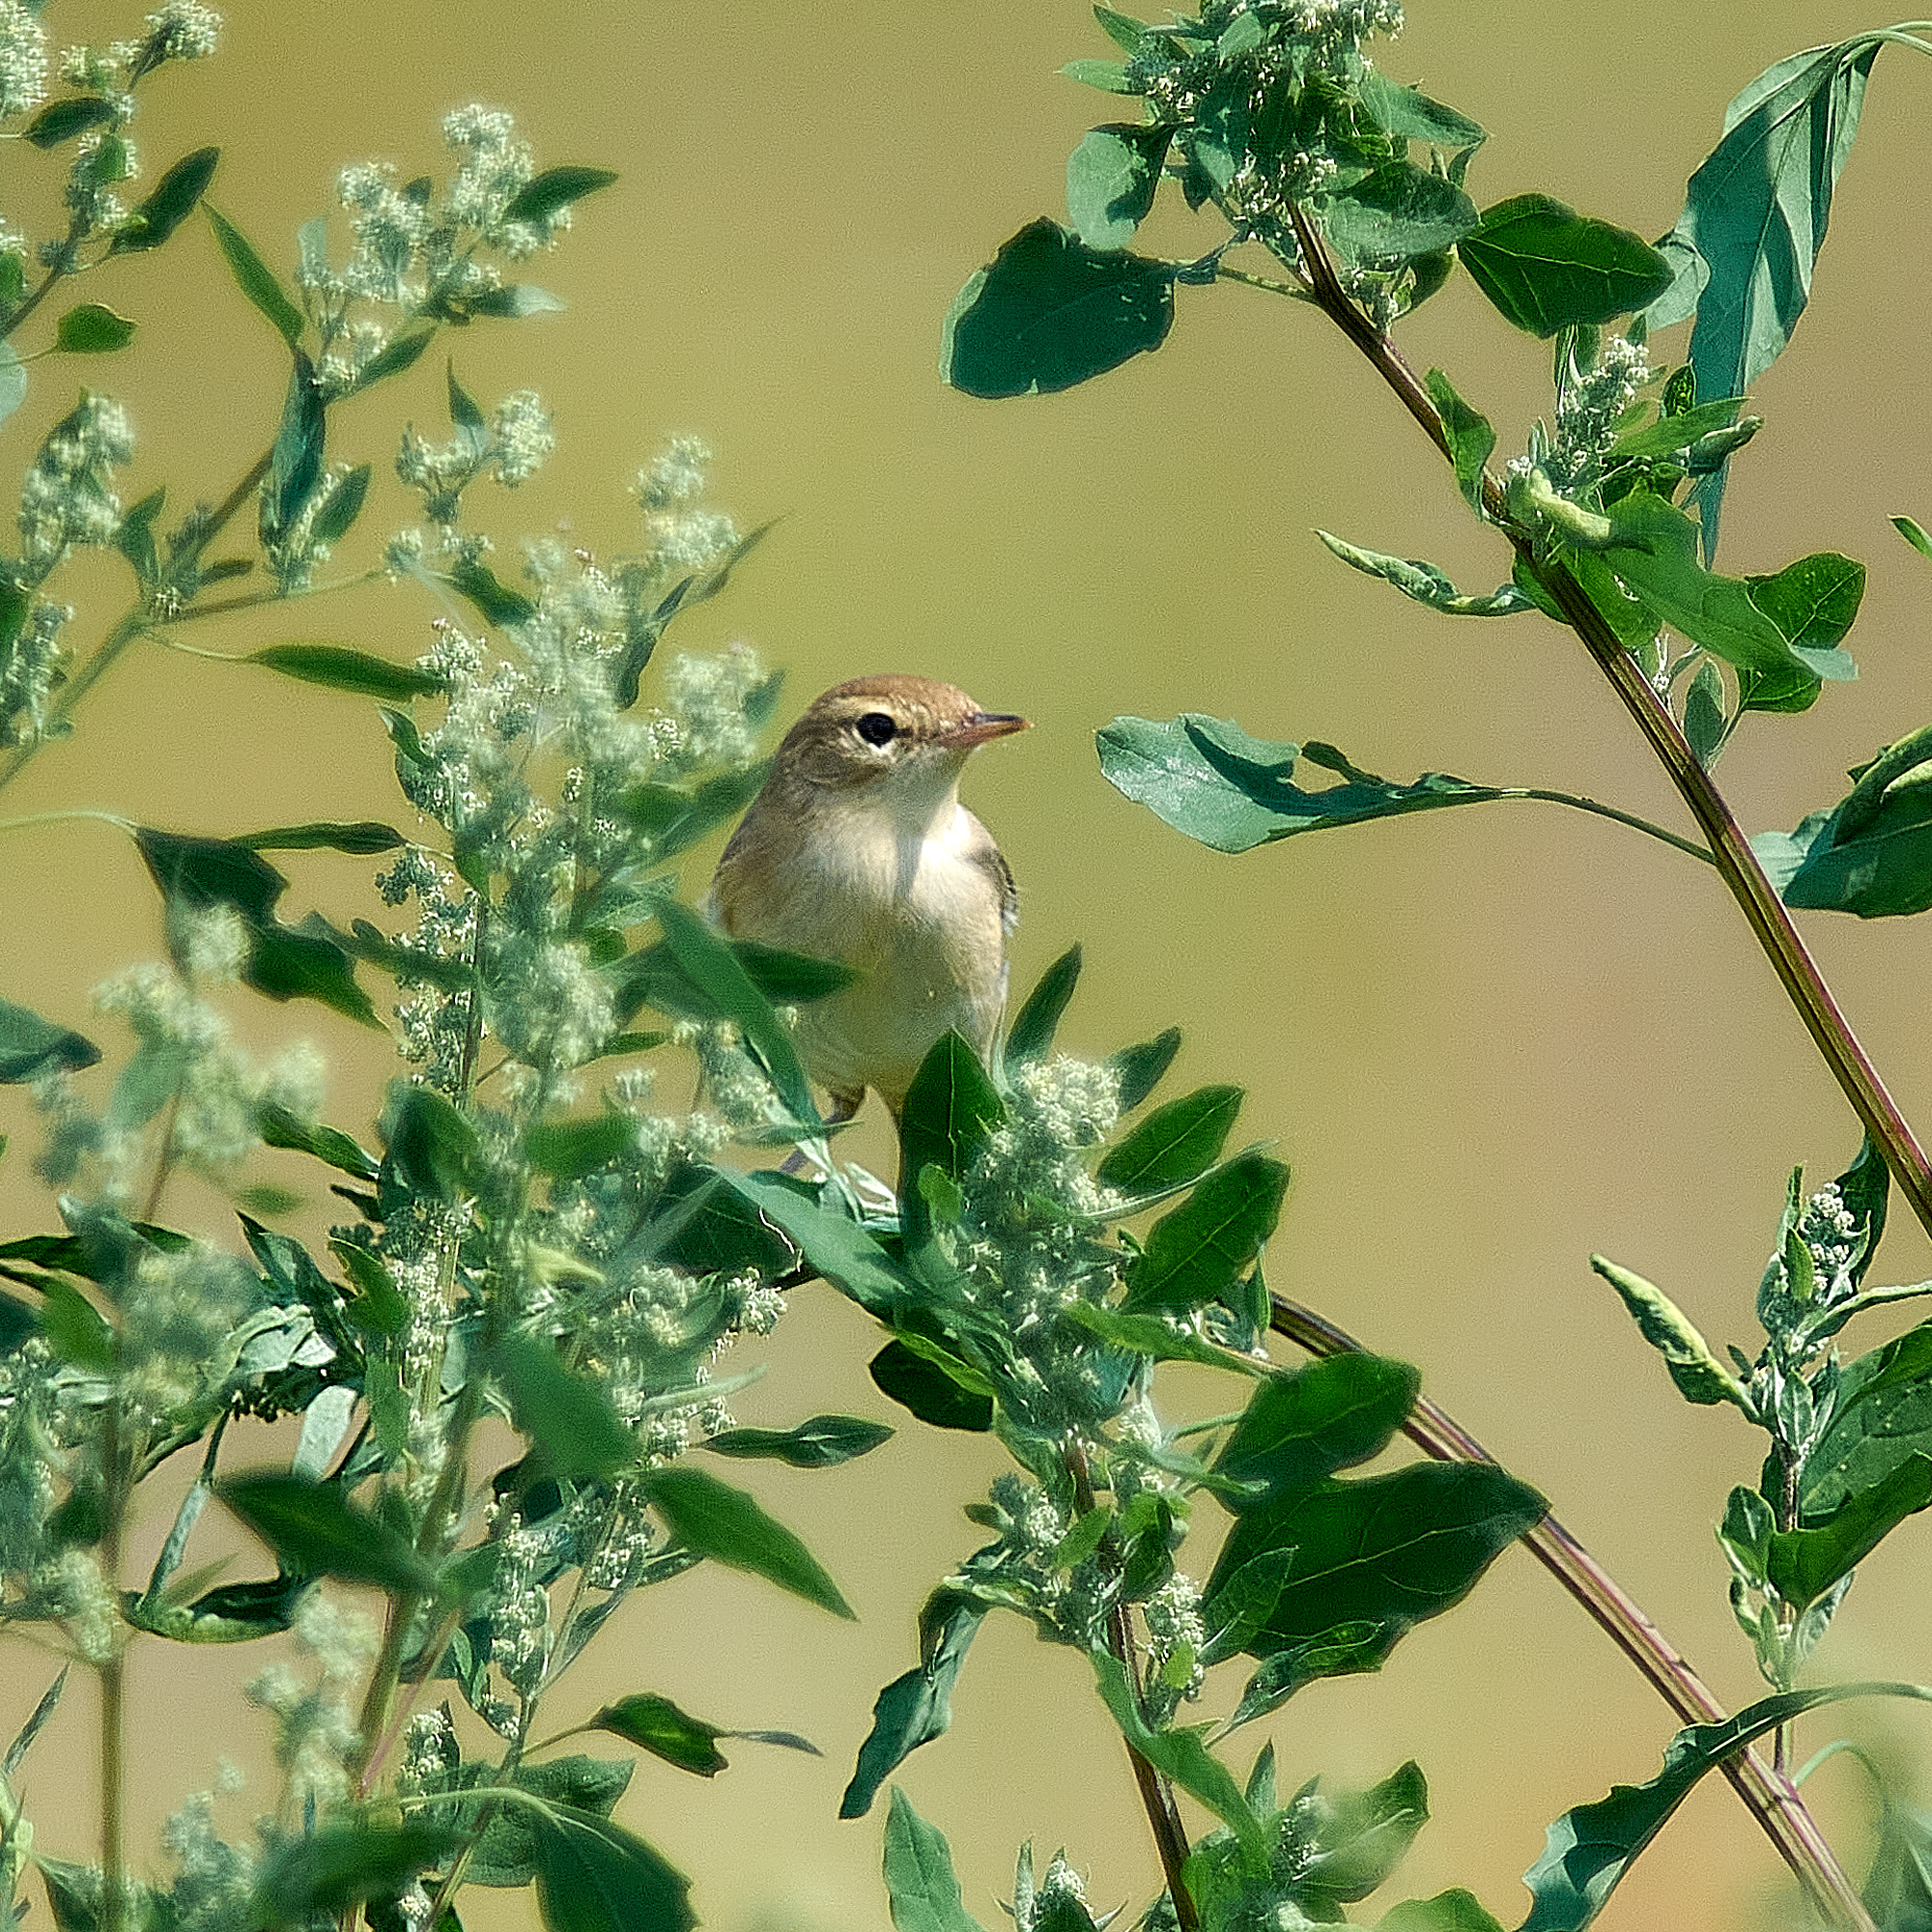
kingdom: Animalia
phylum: Chordata
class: Aves
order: Passeriformes
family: Acrocephalidae
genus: Iduna
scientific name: Iduna caligata
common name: Booted warbler
